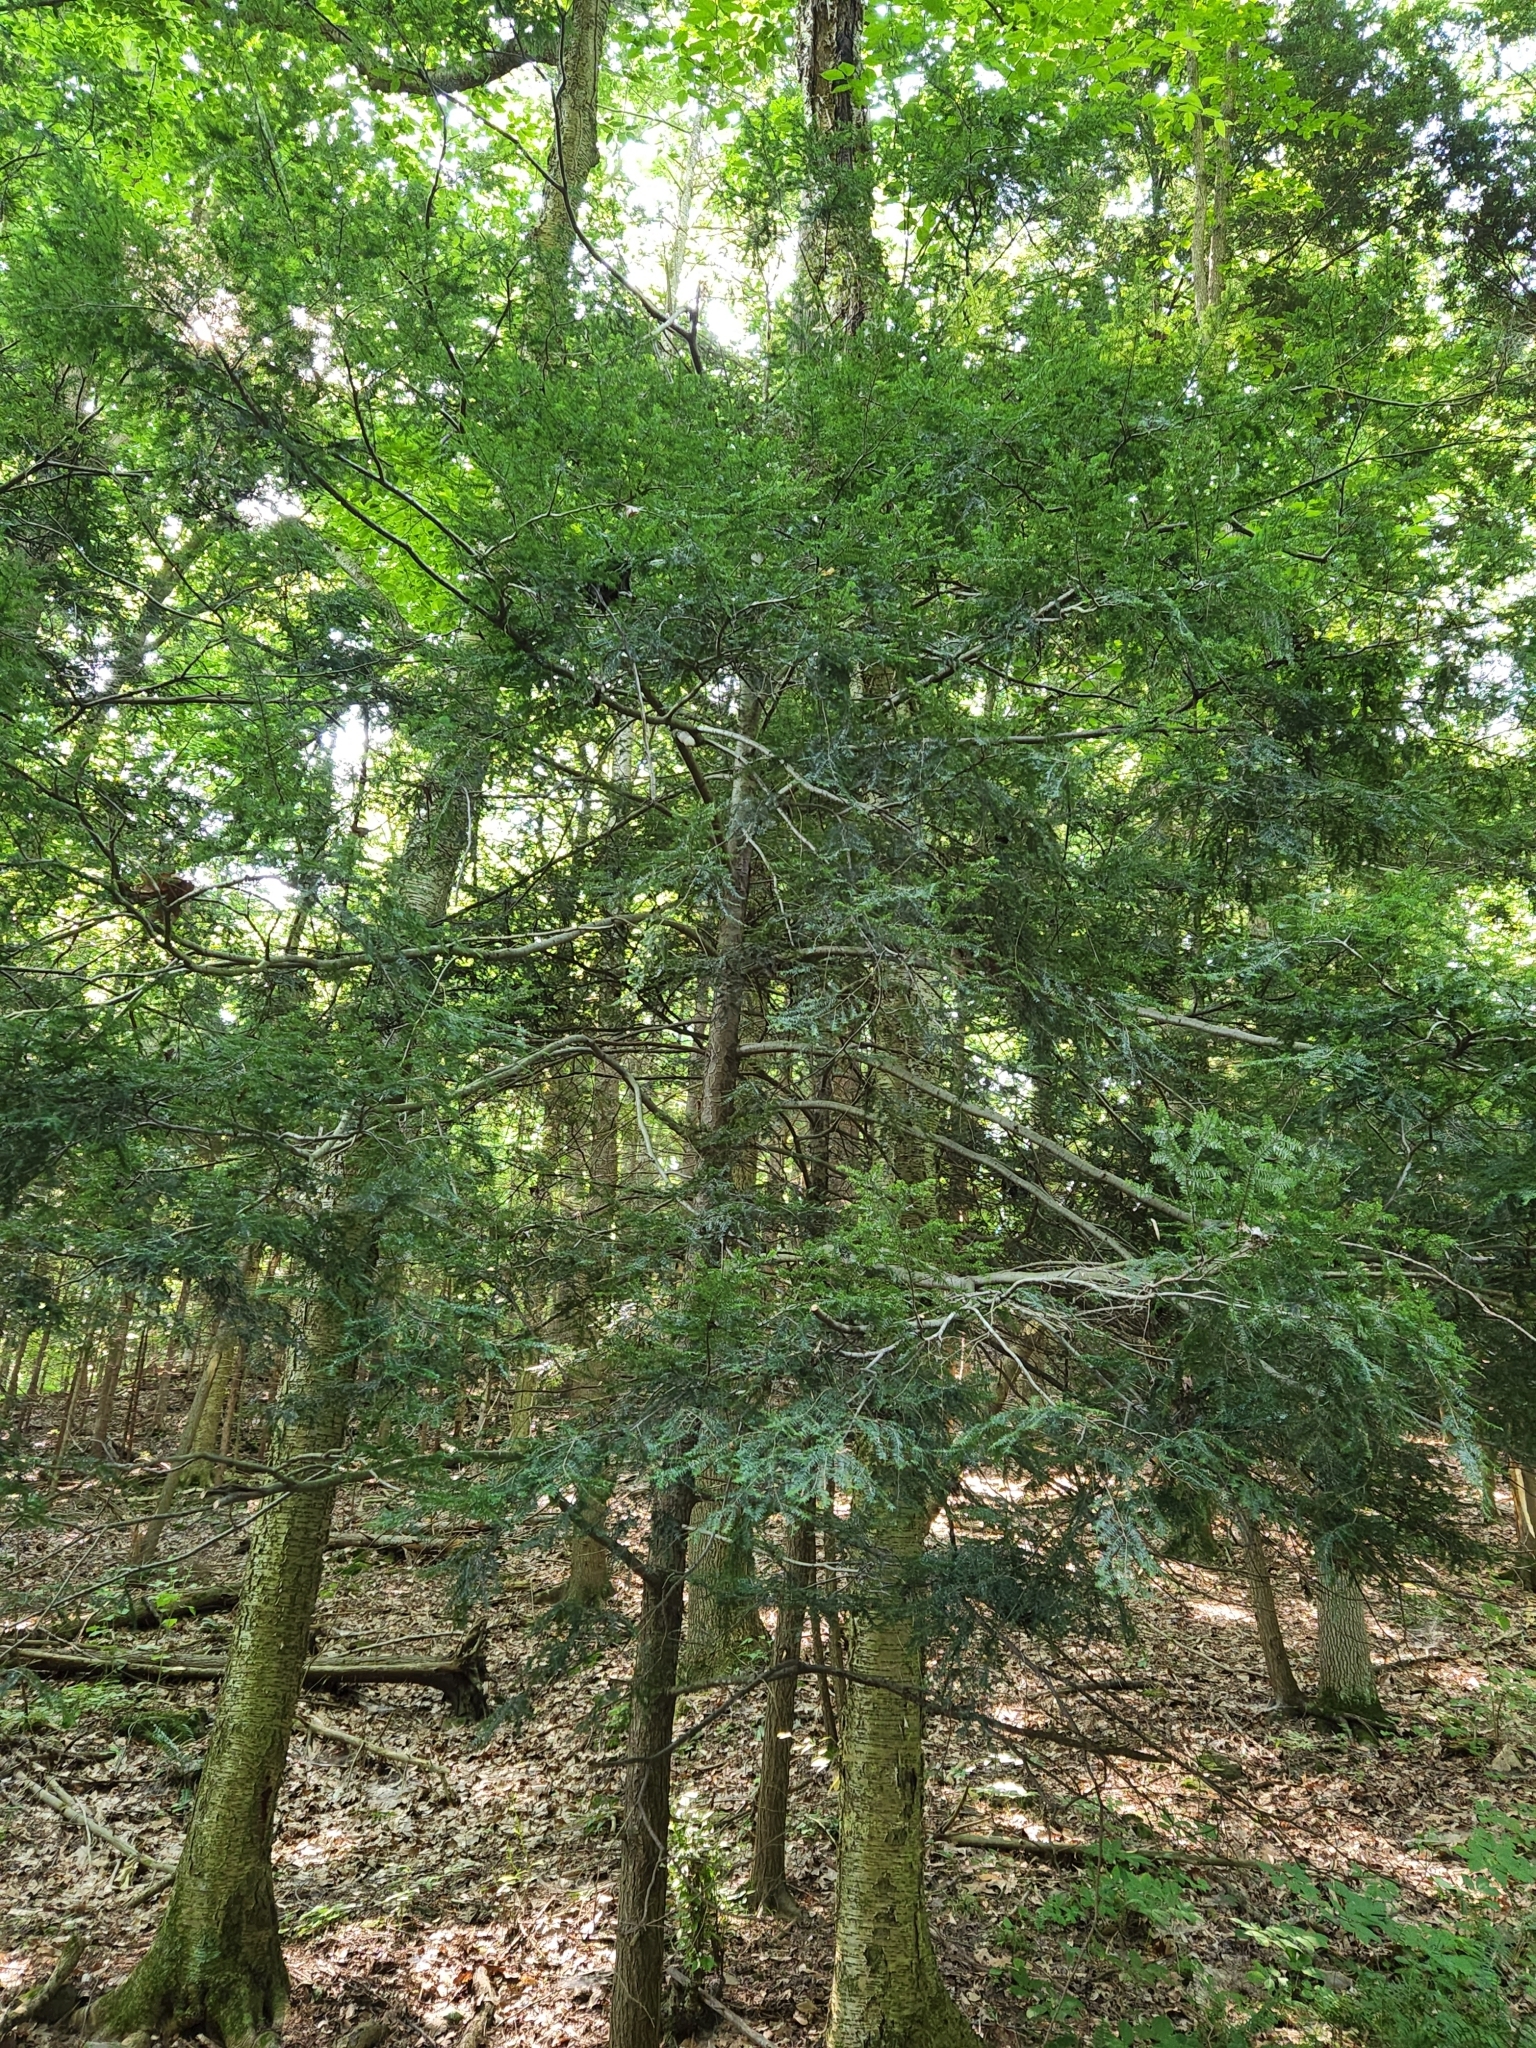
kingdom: Plantae
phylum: Tracheophyta
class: Pinopsida
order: Pinales
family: Pinaceae
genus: Tsuga
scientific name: Tsuga canadensis
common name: Eastern hemlock
